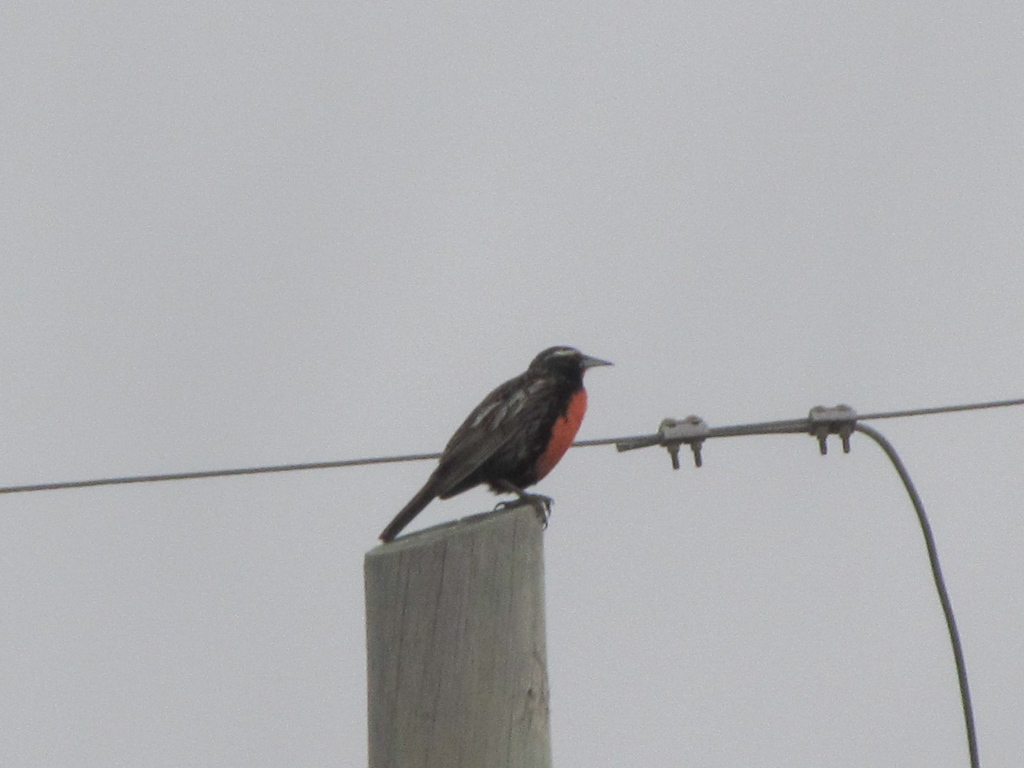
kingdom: Animalia
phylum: Chordata
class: Aves
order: Passeriformes
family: Icteridae
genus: Sturnella
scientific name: Sturnella loyca
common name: Long-tailed meadowlark
